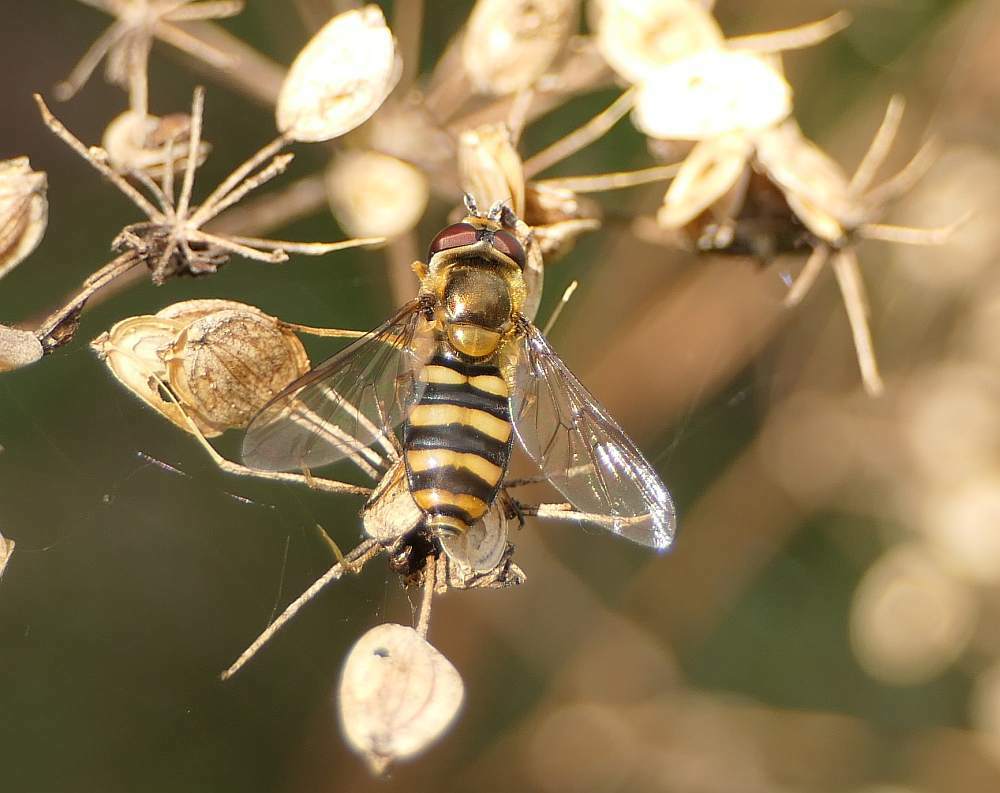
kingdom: Animalia
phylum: Arthropoda
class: Insecta
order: Diptera
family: Syrphidae
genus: Eupeodes
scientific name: Eupeodes
